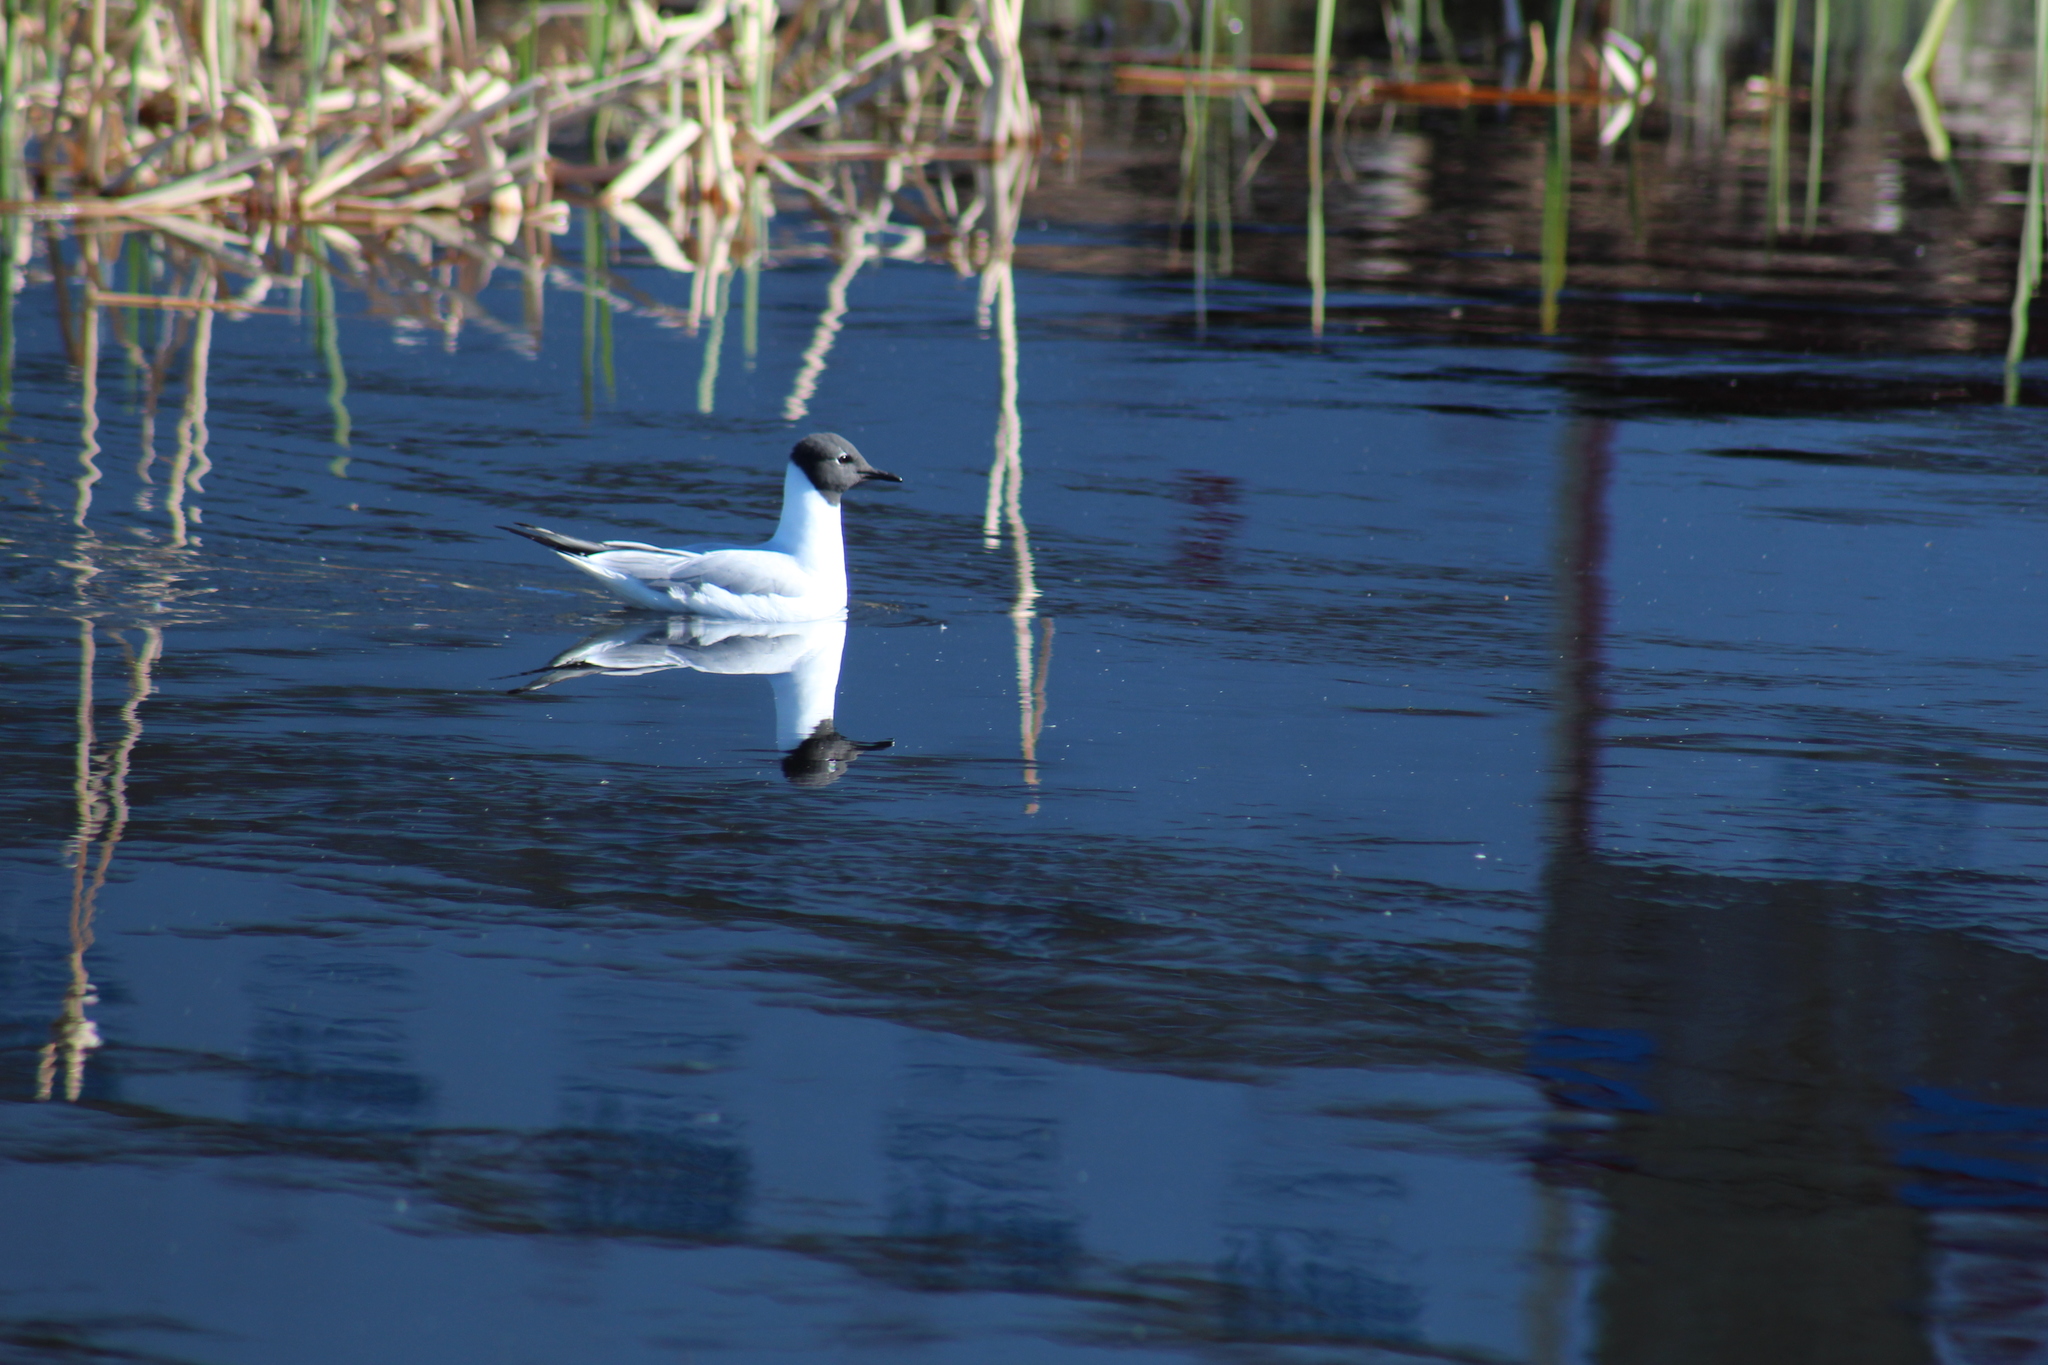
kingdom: Animalia
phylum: Chordata
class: Aves
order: Charadriiformes
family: Laridae
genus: Chroicocephalus
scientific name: Chroicocephalus philadelphia
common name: Bonaparte's gull
